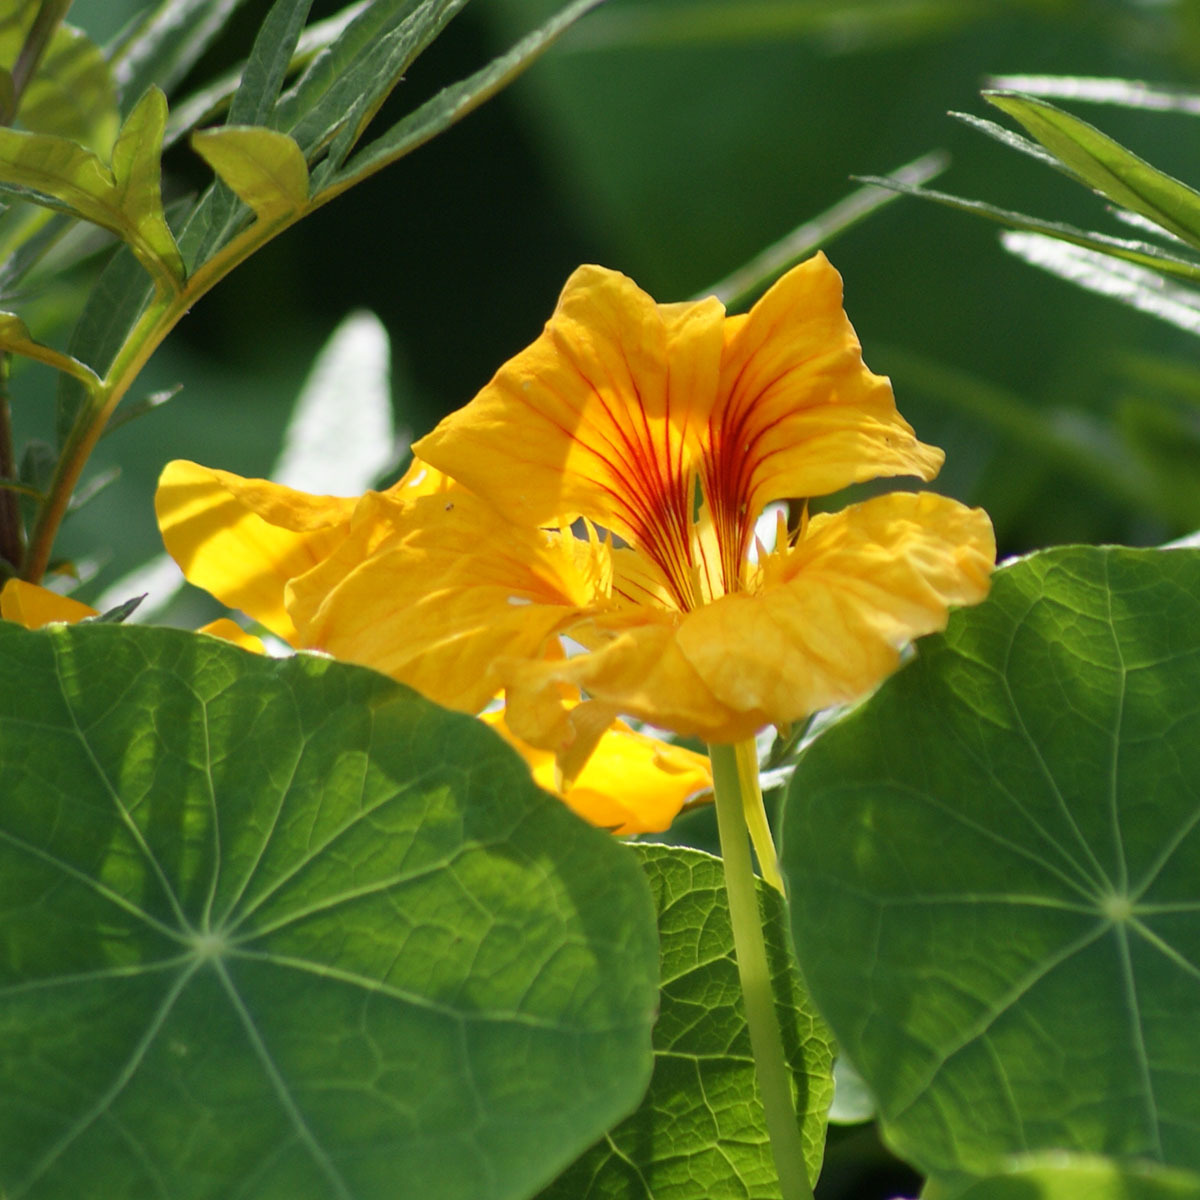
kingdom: Plantae
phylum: Tracheophyta
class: Magnoliopsida
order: Brassicales
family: Tropaeolaceae
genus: Tropaeolum
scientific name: Tropaeolum majus
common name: Nasturtium
